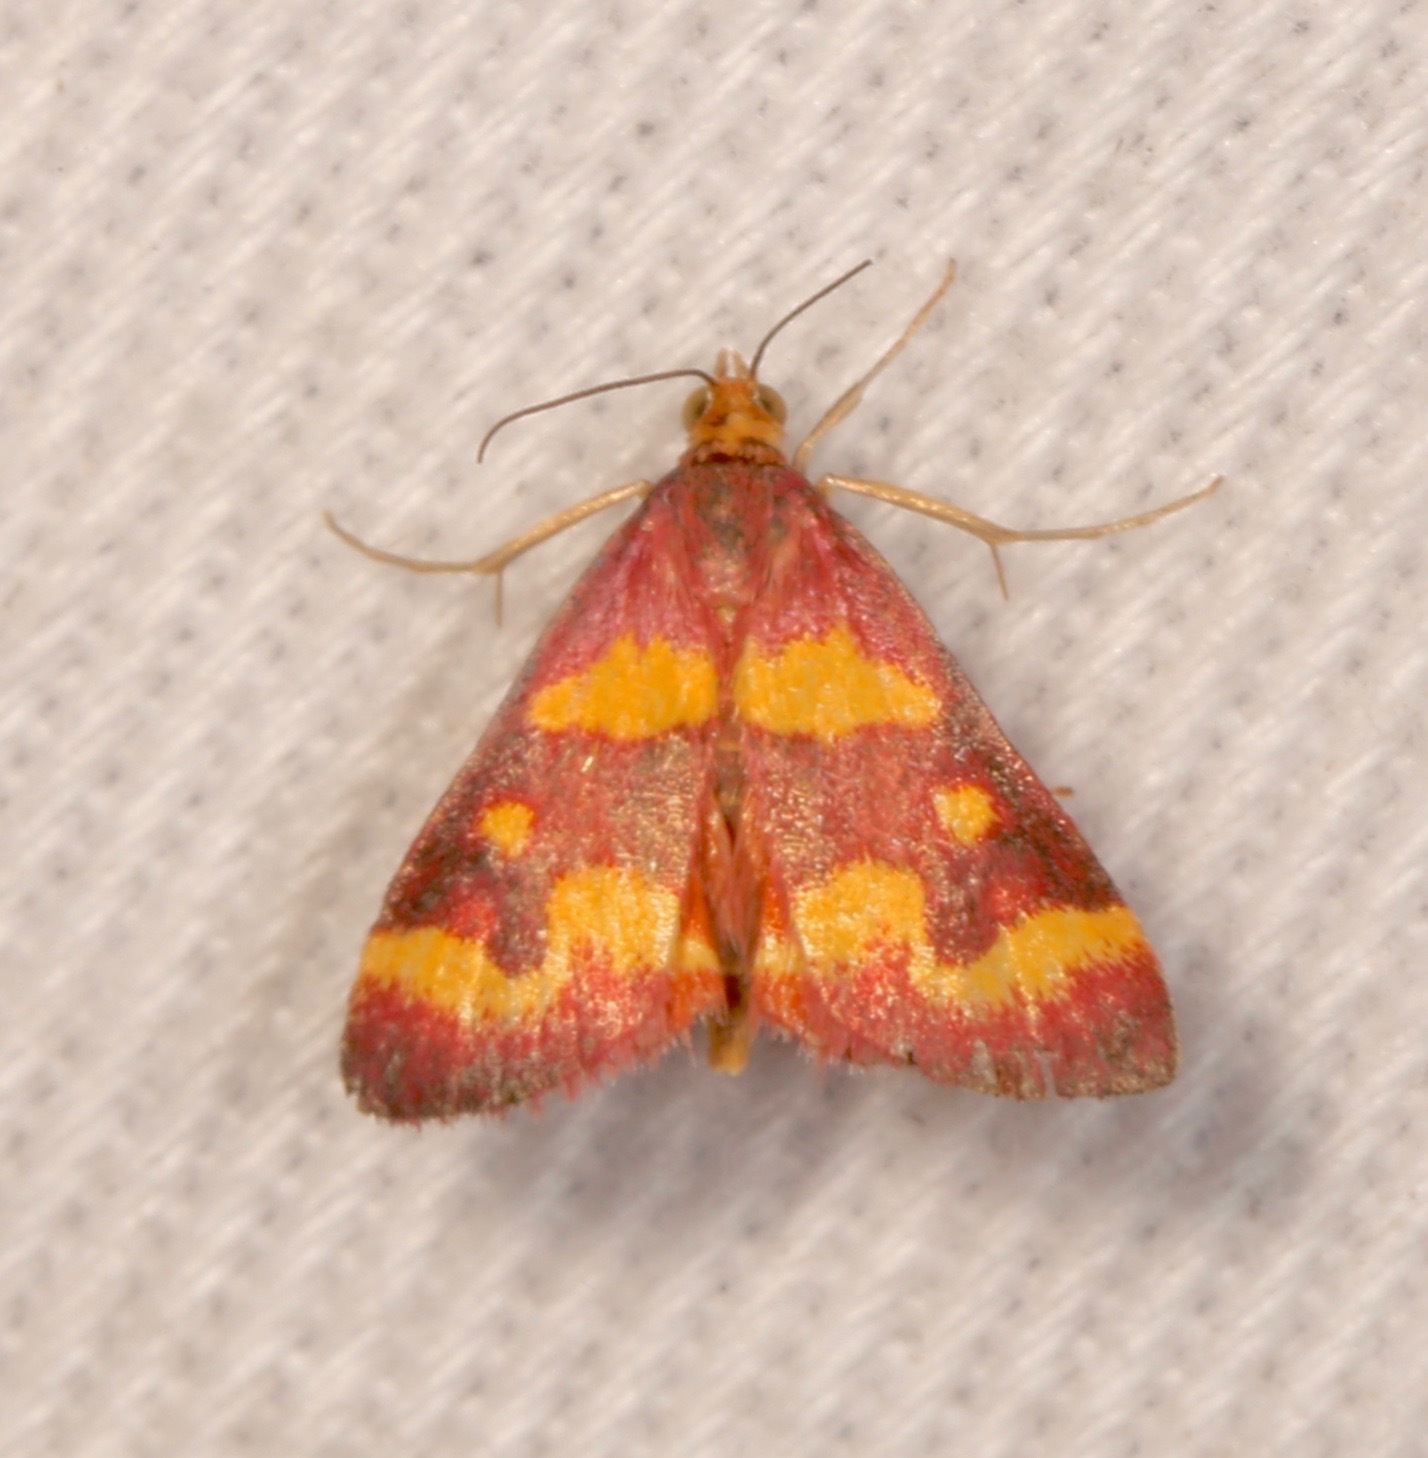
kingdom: Animalia
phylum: Arthropoda
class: Insecta
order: Lepidoptera
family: Crambidae
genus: Pyrausta
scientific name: Pyrausta tyralis
